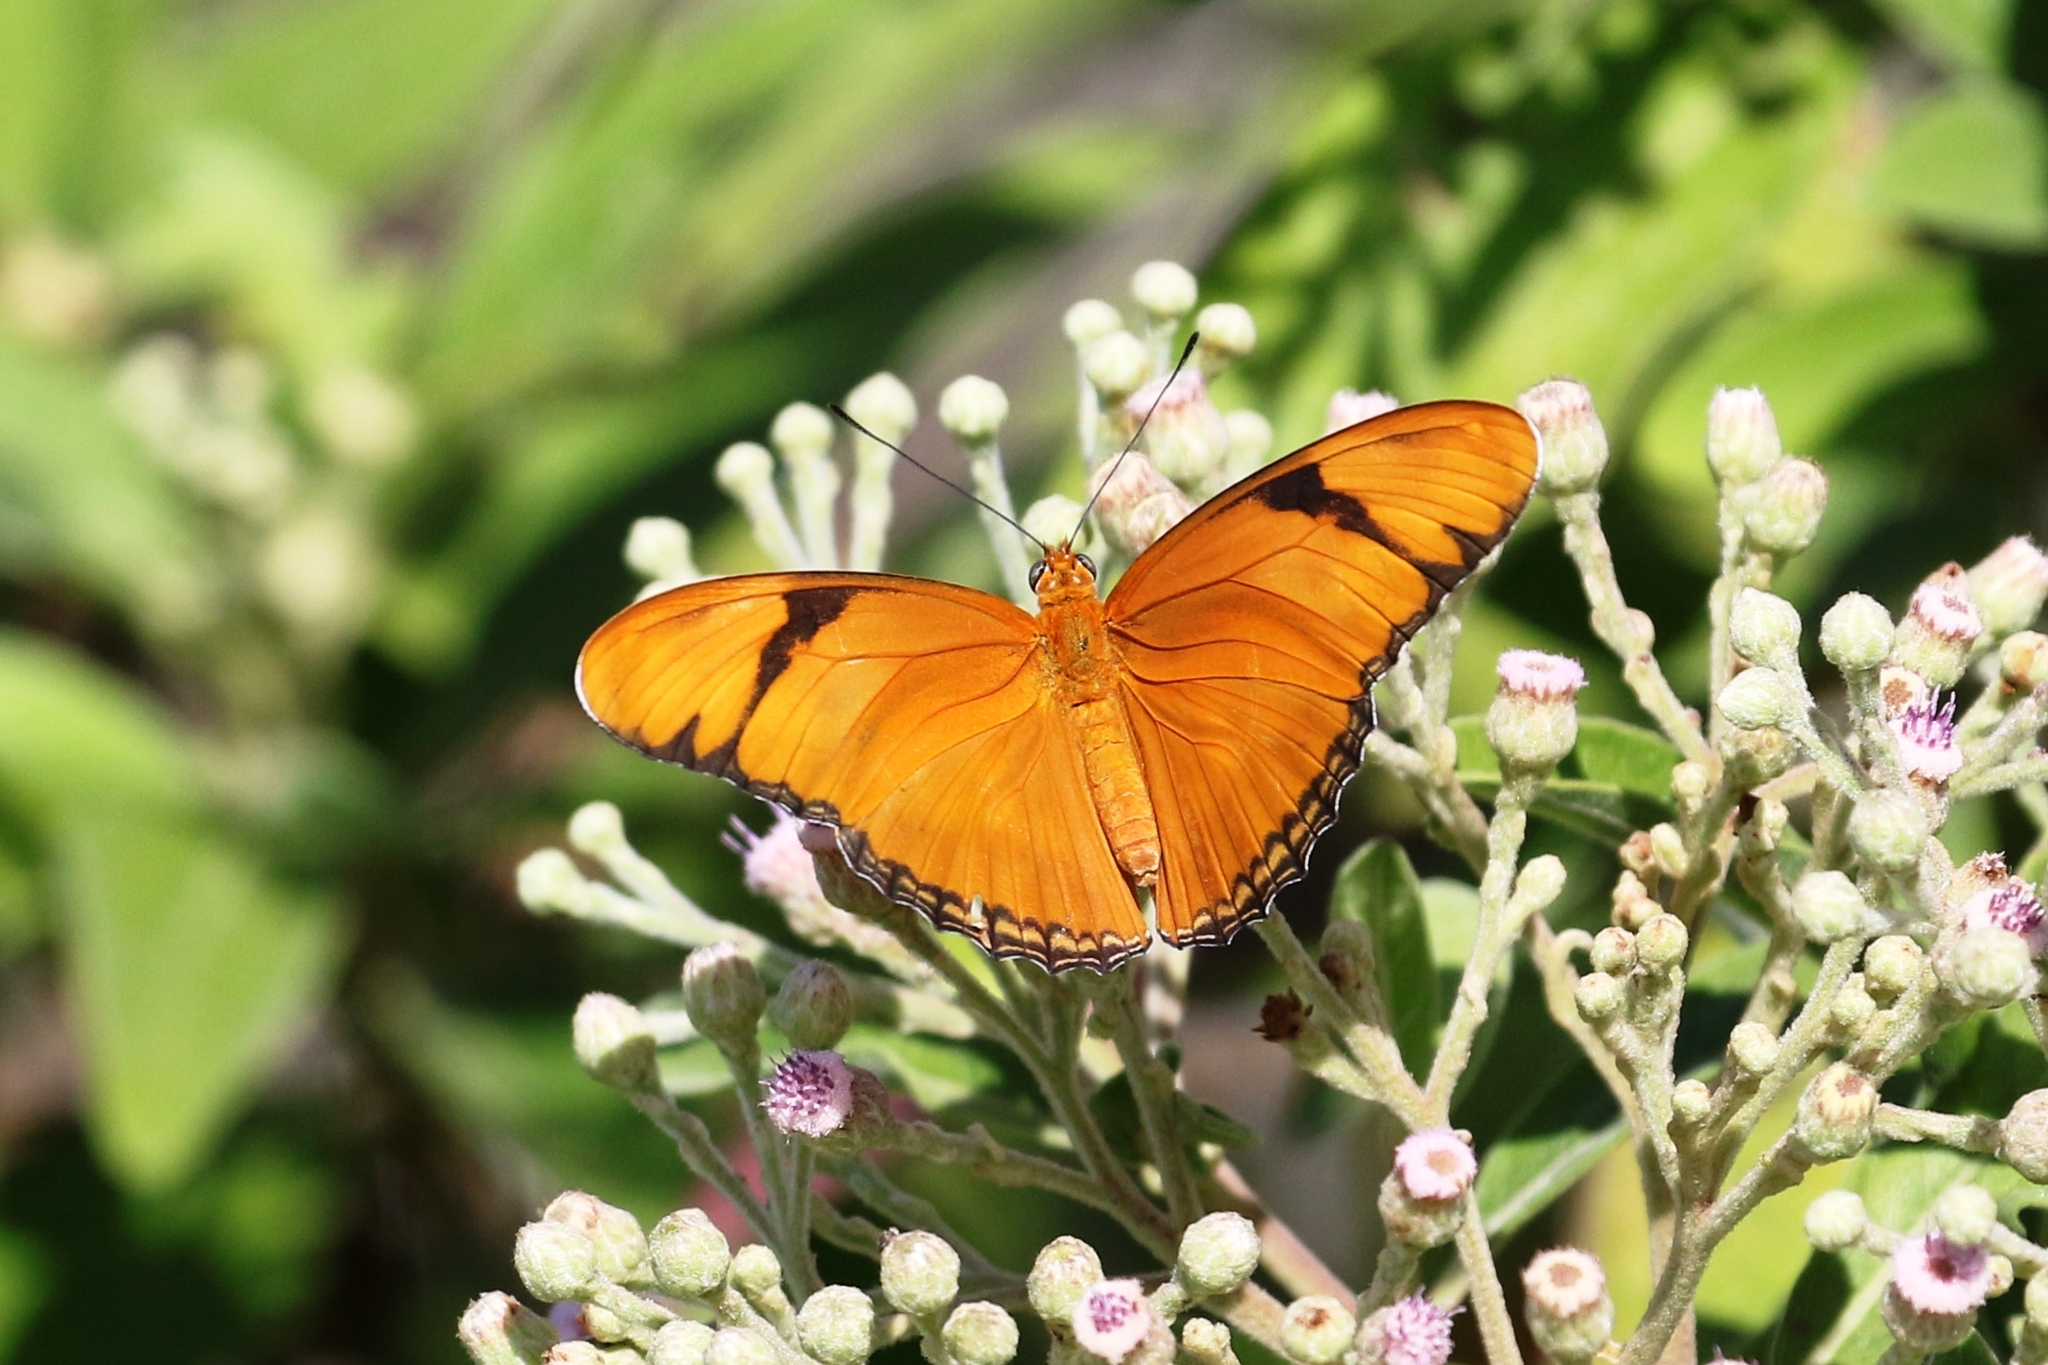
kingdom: Animalia
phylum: Arthropoda
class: Insecta
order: Lepidoptera
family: Nymphalidae
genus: Dryas
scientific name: Dryas iulia
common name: Flambeau
